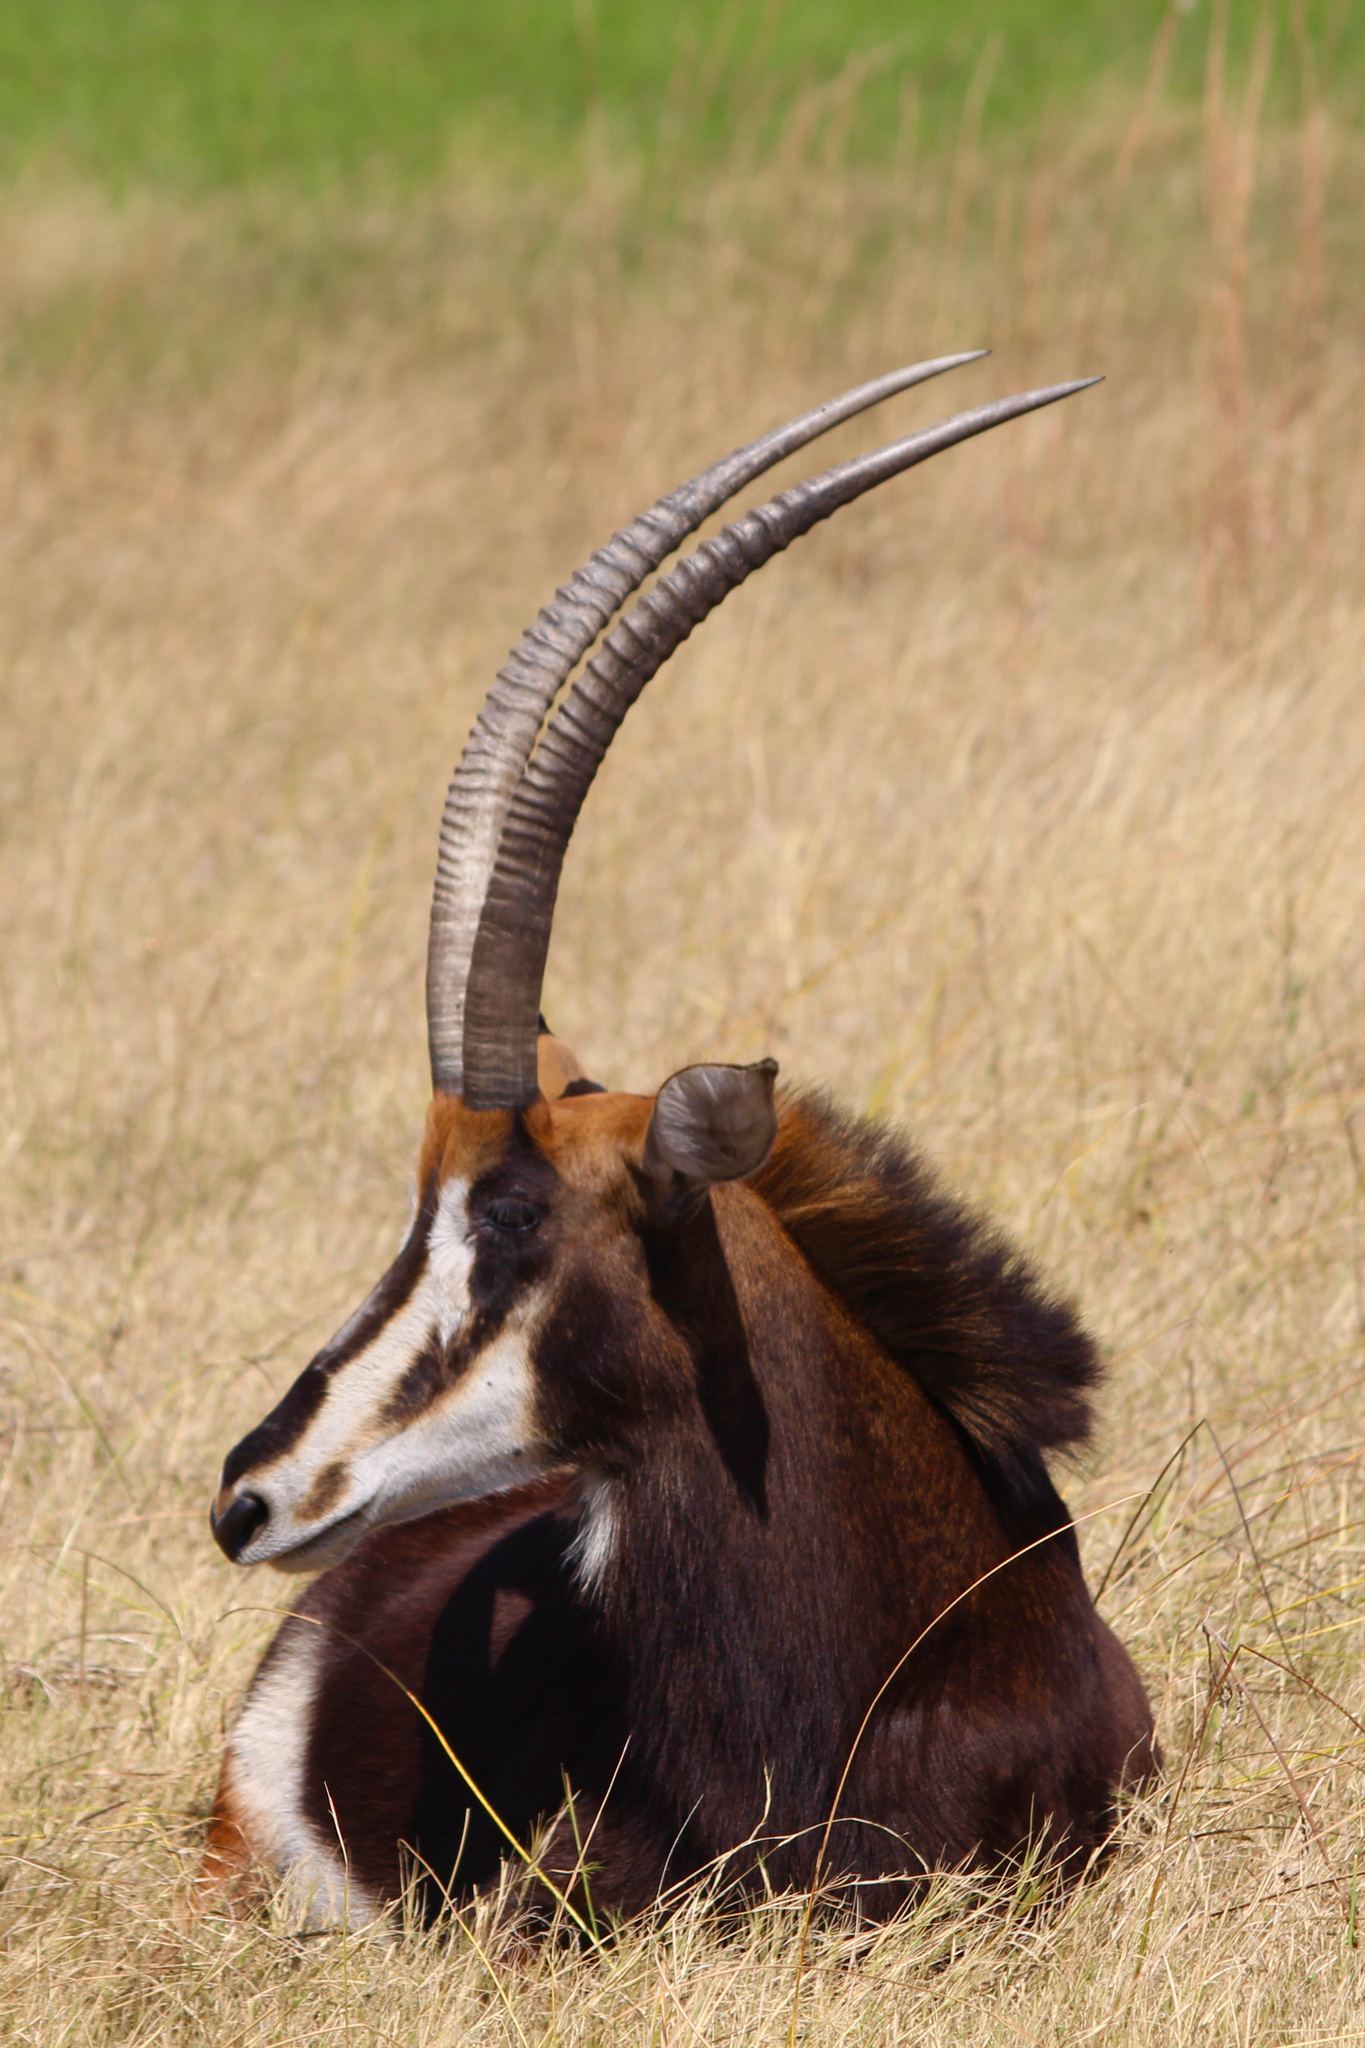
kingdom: Animalia
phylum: Chordata
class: Mammalia
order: Artiodactyla
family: Bovidae
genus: Hippotragus
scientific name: Hippotragus niger
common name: Sable antelope
